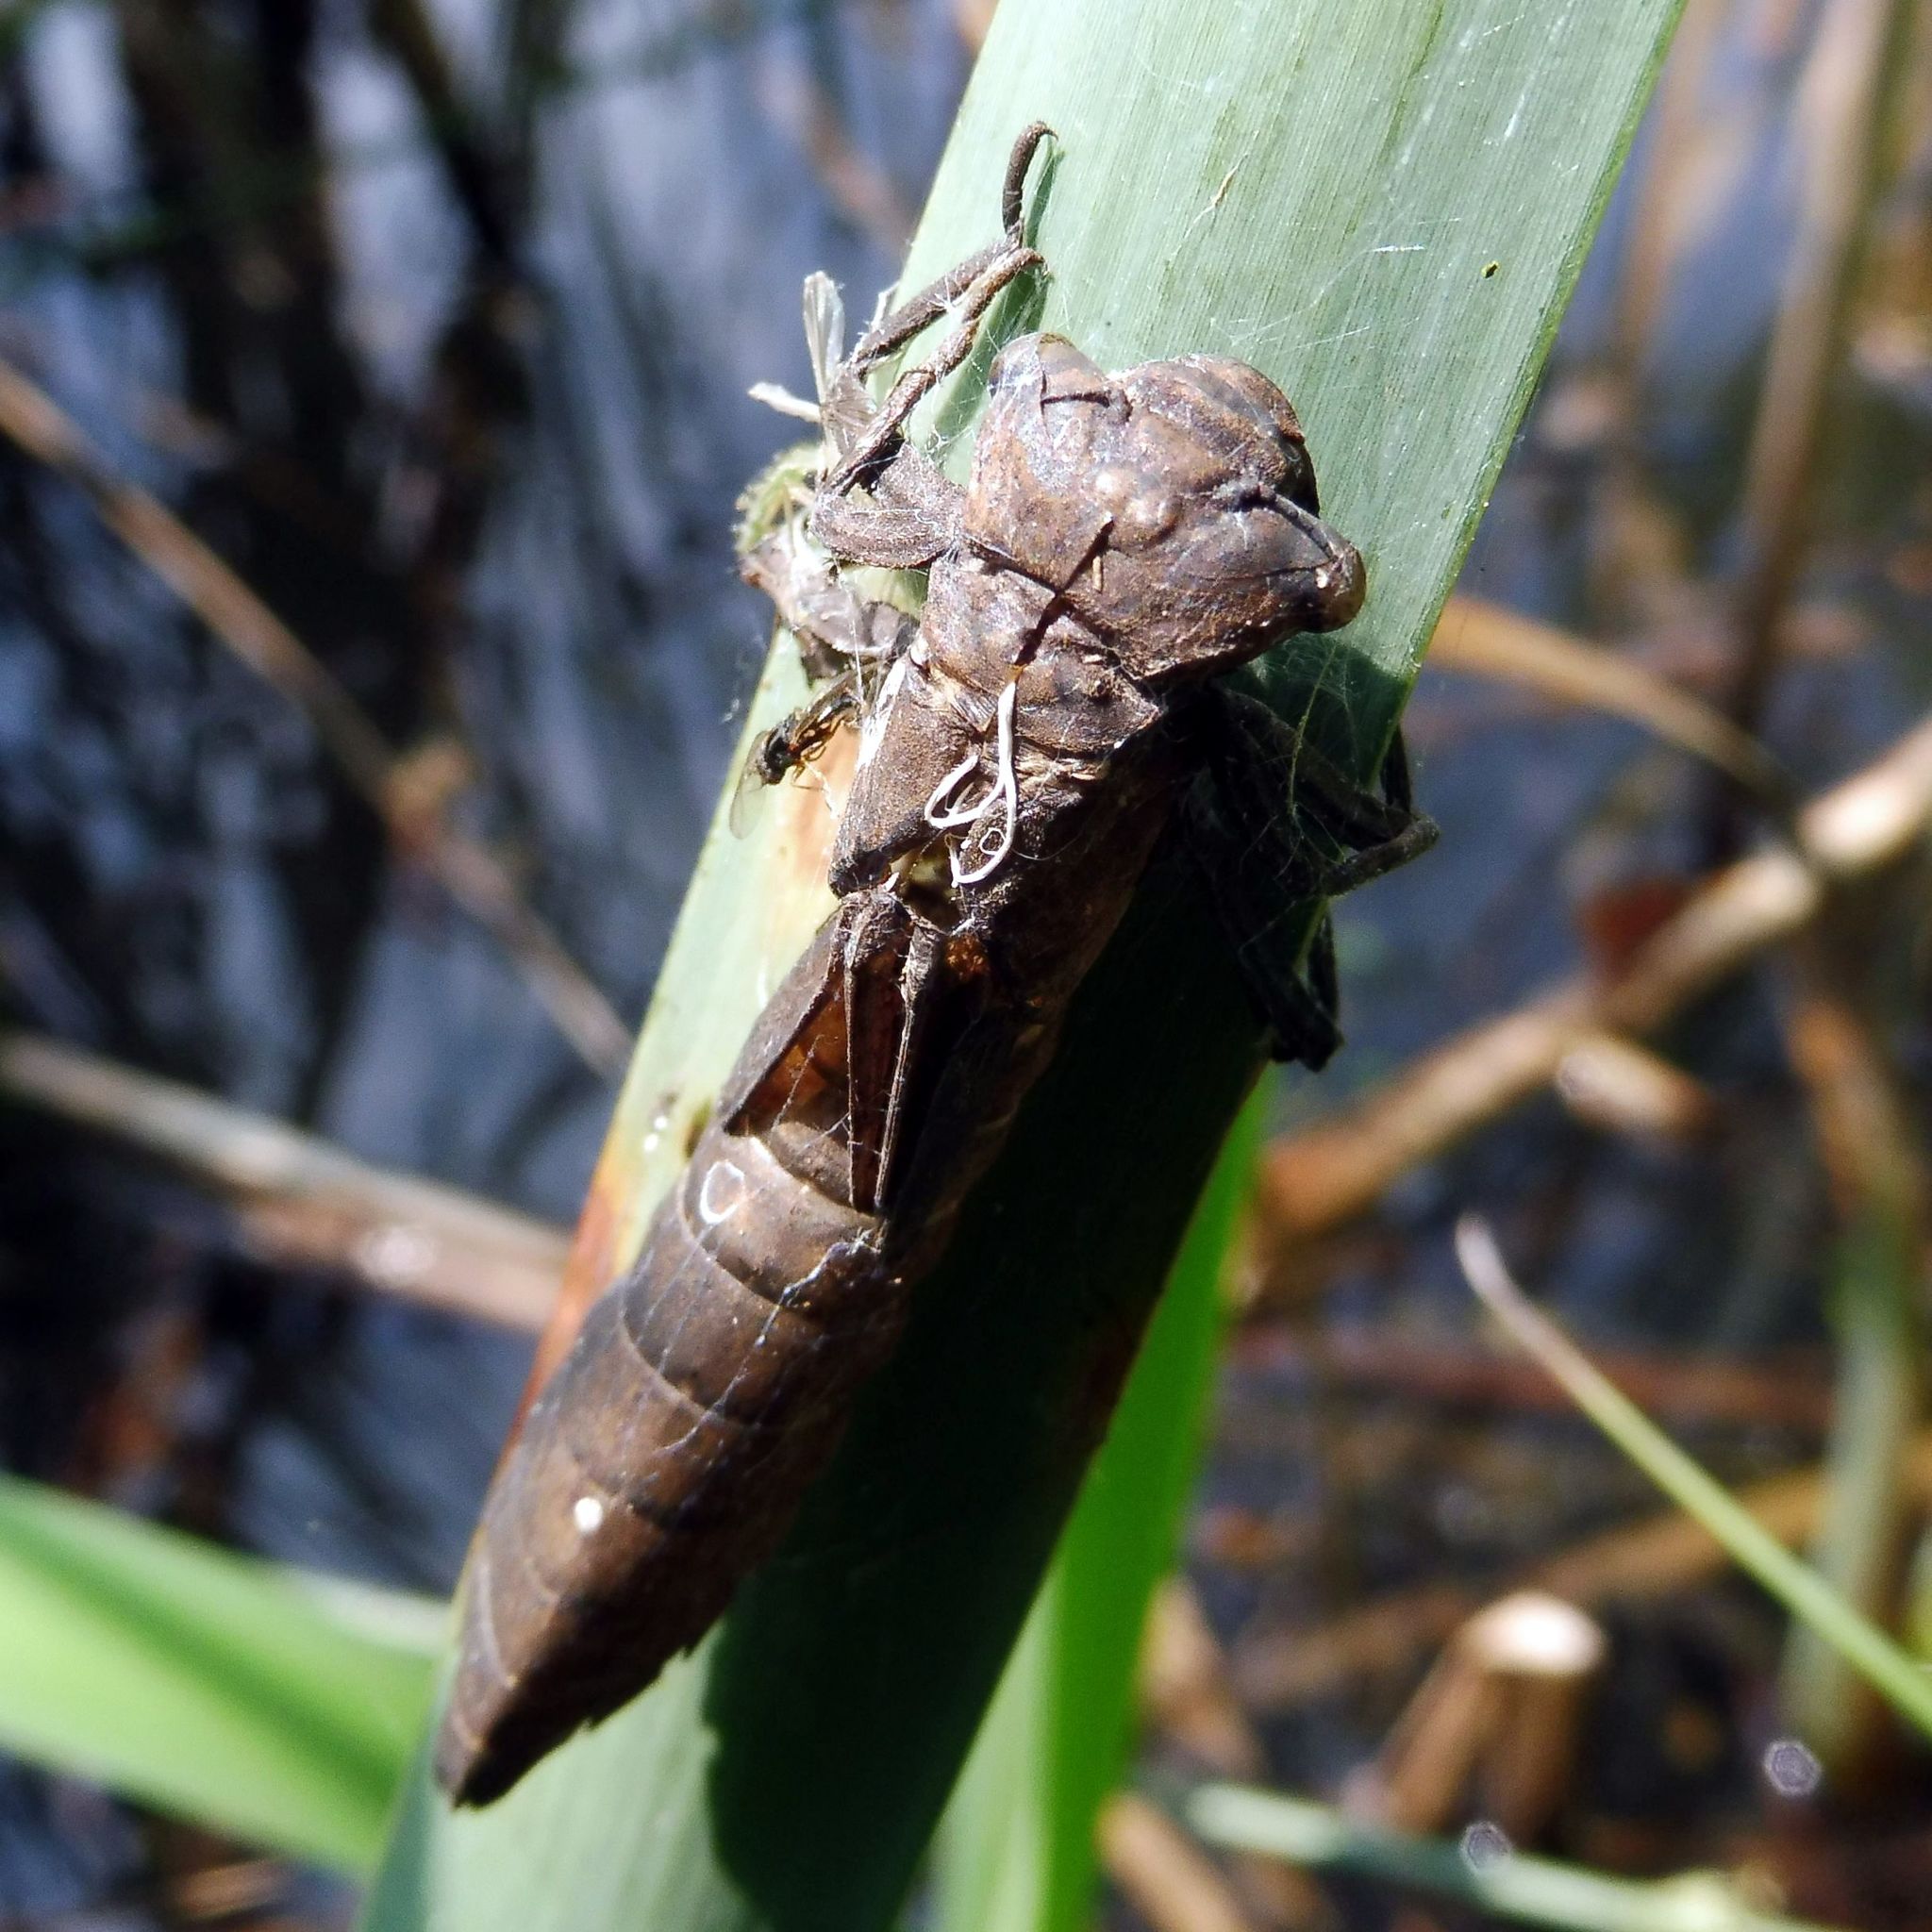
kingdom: Animalia
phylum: Arthropoda
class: Insecta
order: Odonata
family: Aeshnidae
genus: Brachytron
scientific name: Brachytron pratense
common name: Hairy hawker
